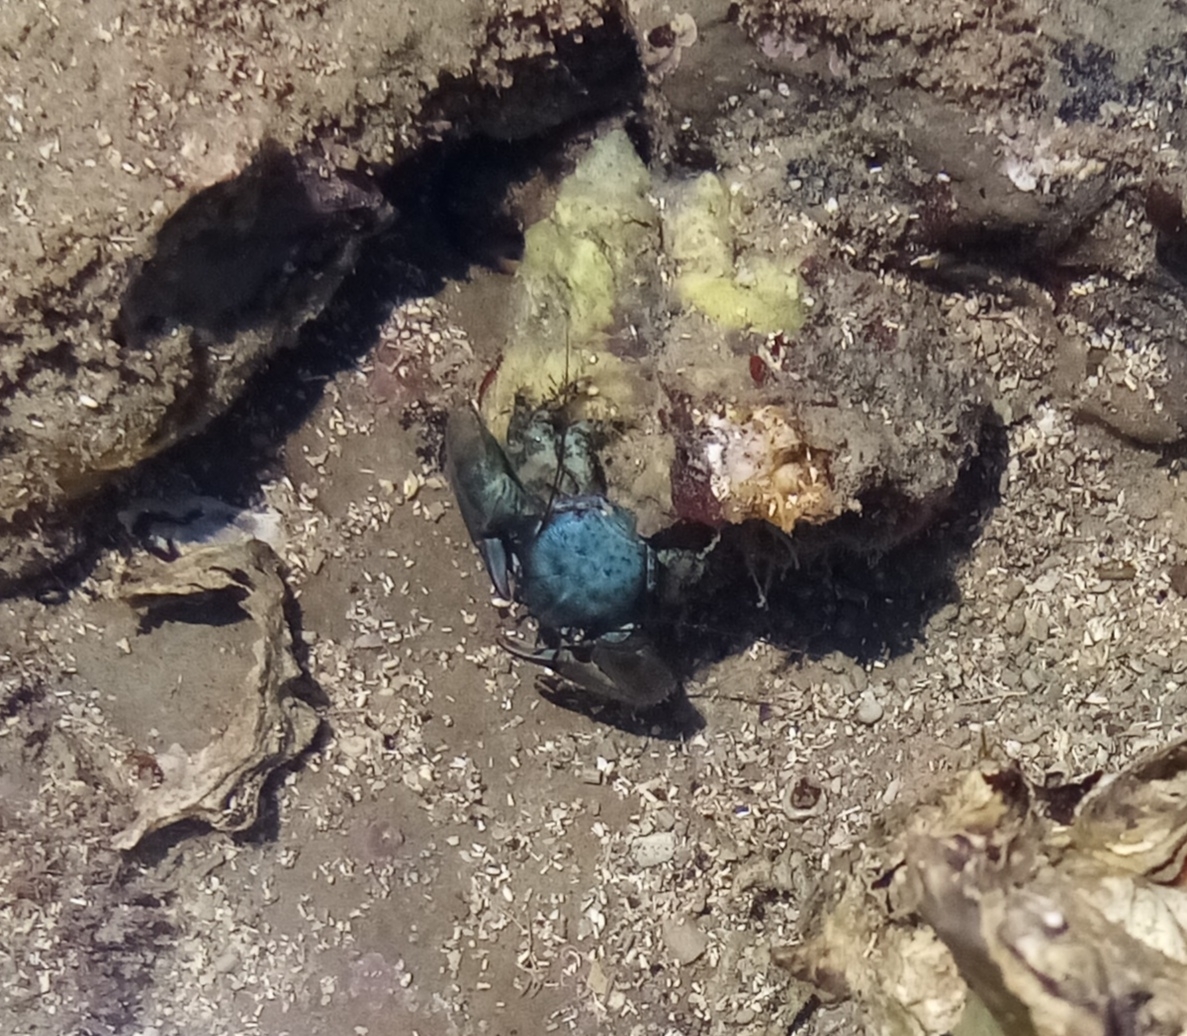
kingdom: Animalia
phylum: Arthropoda
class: Malacostraca
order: Decapoda
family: Porcellanidae
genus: Petrolisthes
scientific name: Petrolisthes elongatus
